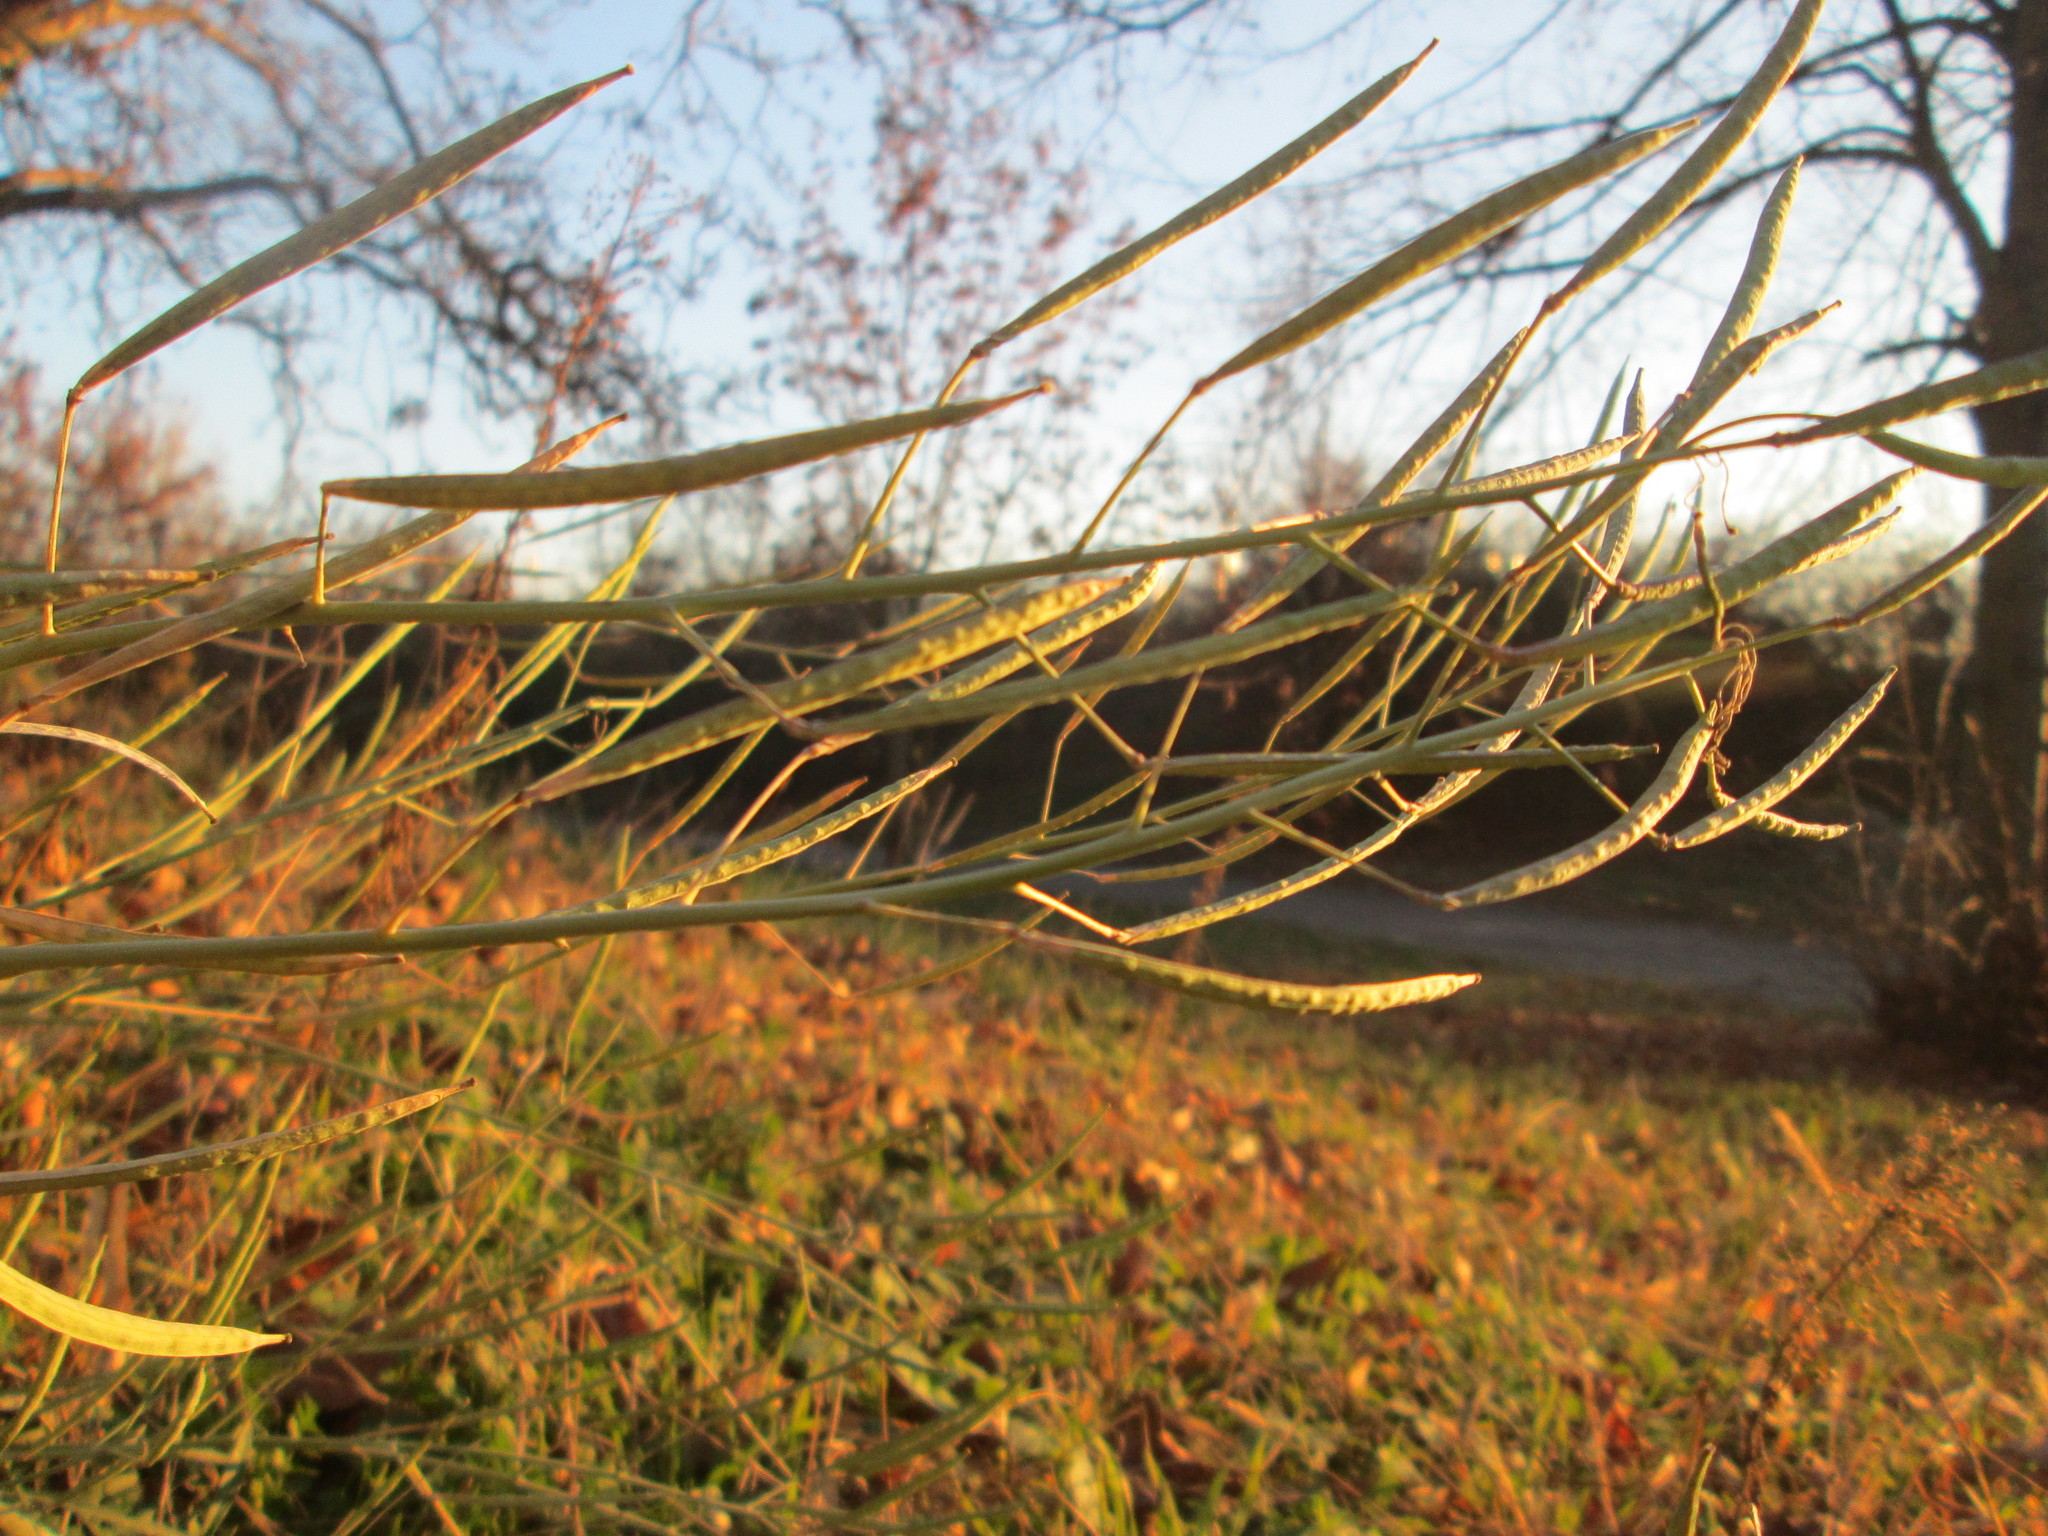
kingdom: Plantae
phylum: Tracheophyta
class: Magnoliopsida
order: Brassicales
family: Brassicaceae
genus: Diplotaxis
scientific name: Diplotaxis tenuifolia
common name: Perennial wall-rocket
